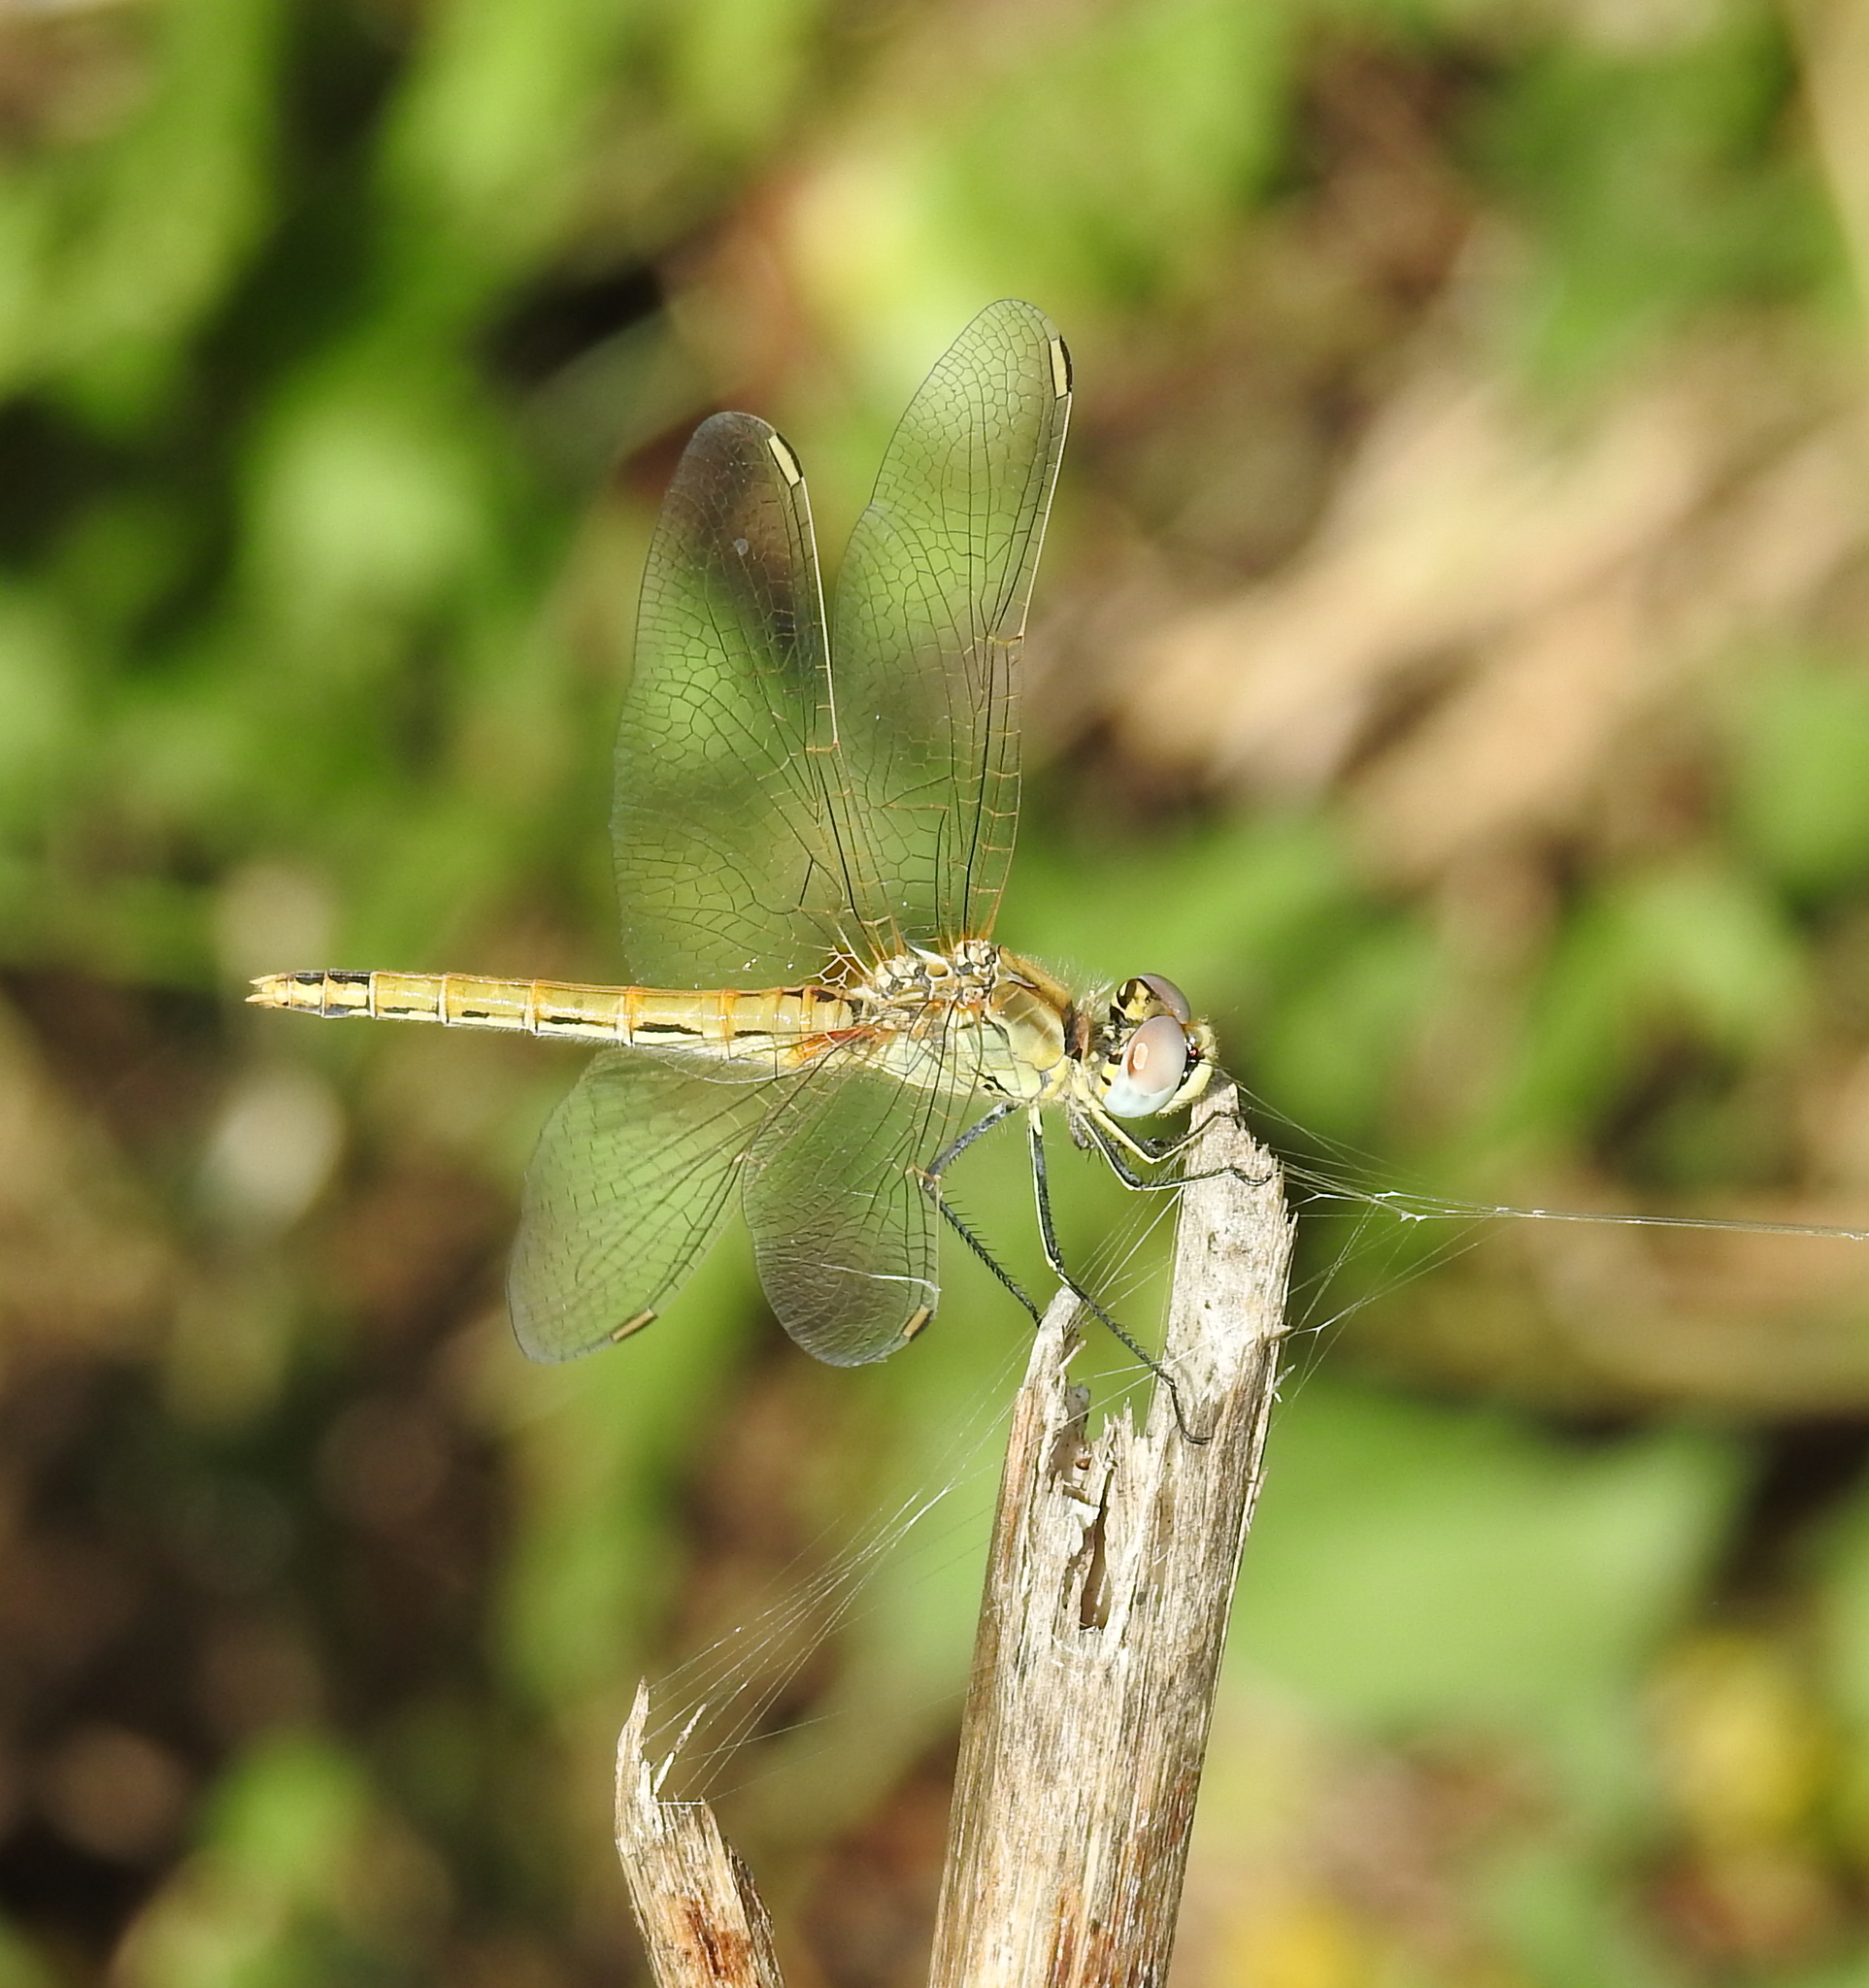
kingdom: Animalia
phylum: Arthropoda
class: Insecta
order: Odonata
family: Libellulidae
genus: Sympetrum
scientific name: Sympetrum fonscolombii
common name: Red-veined darter
